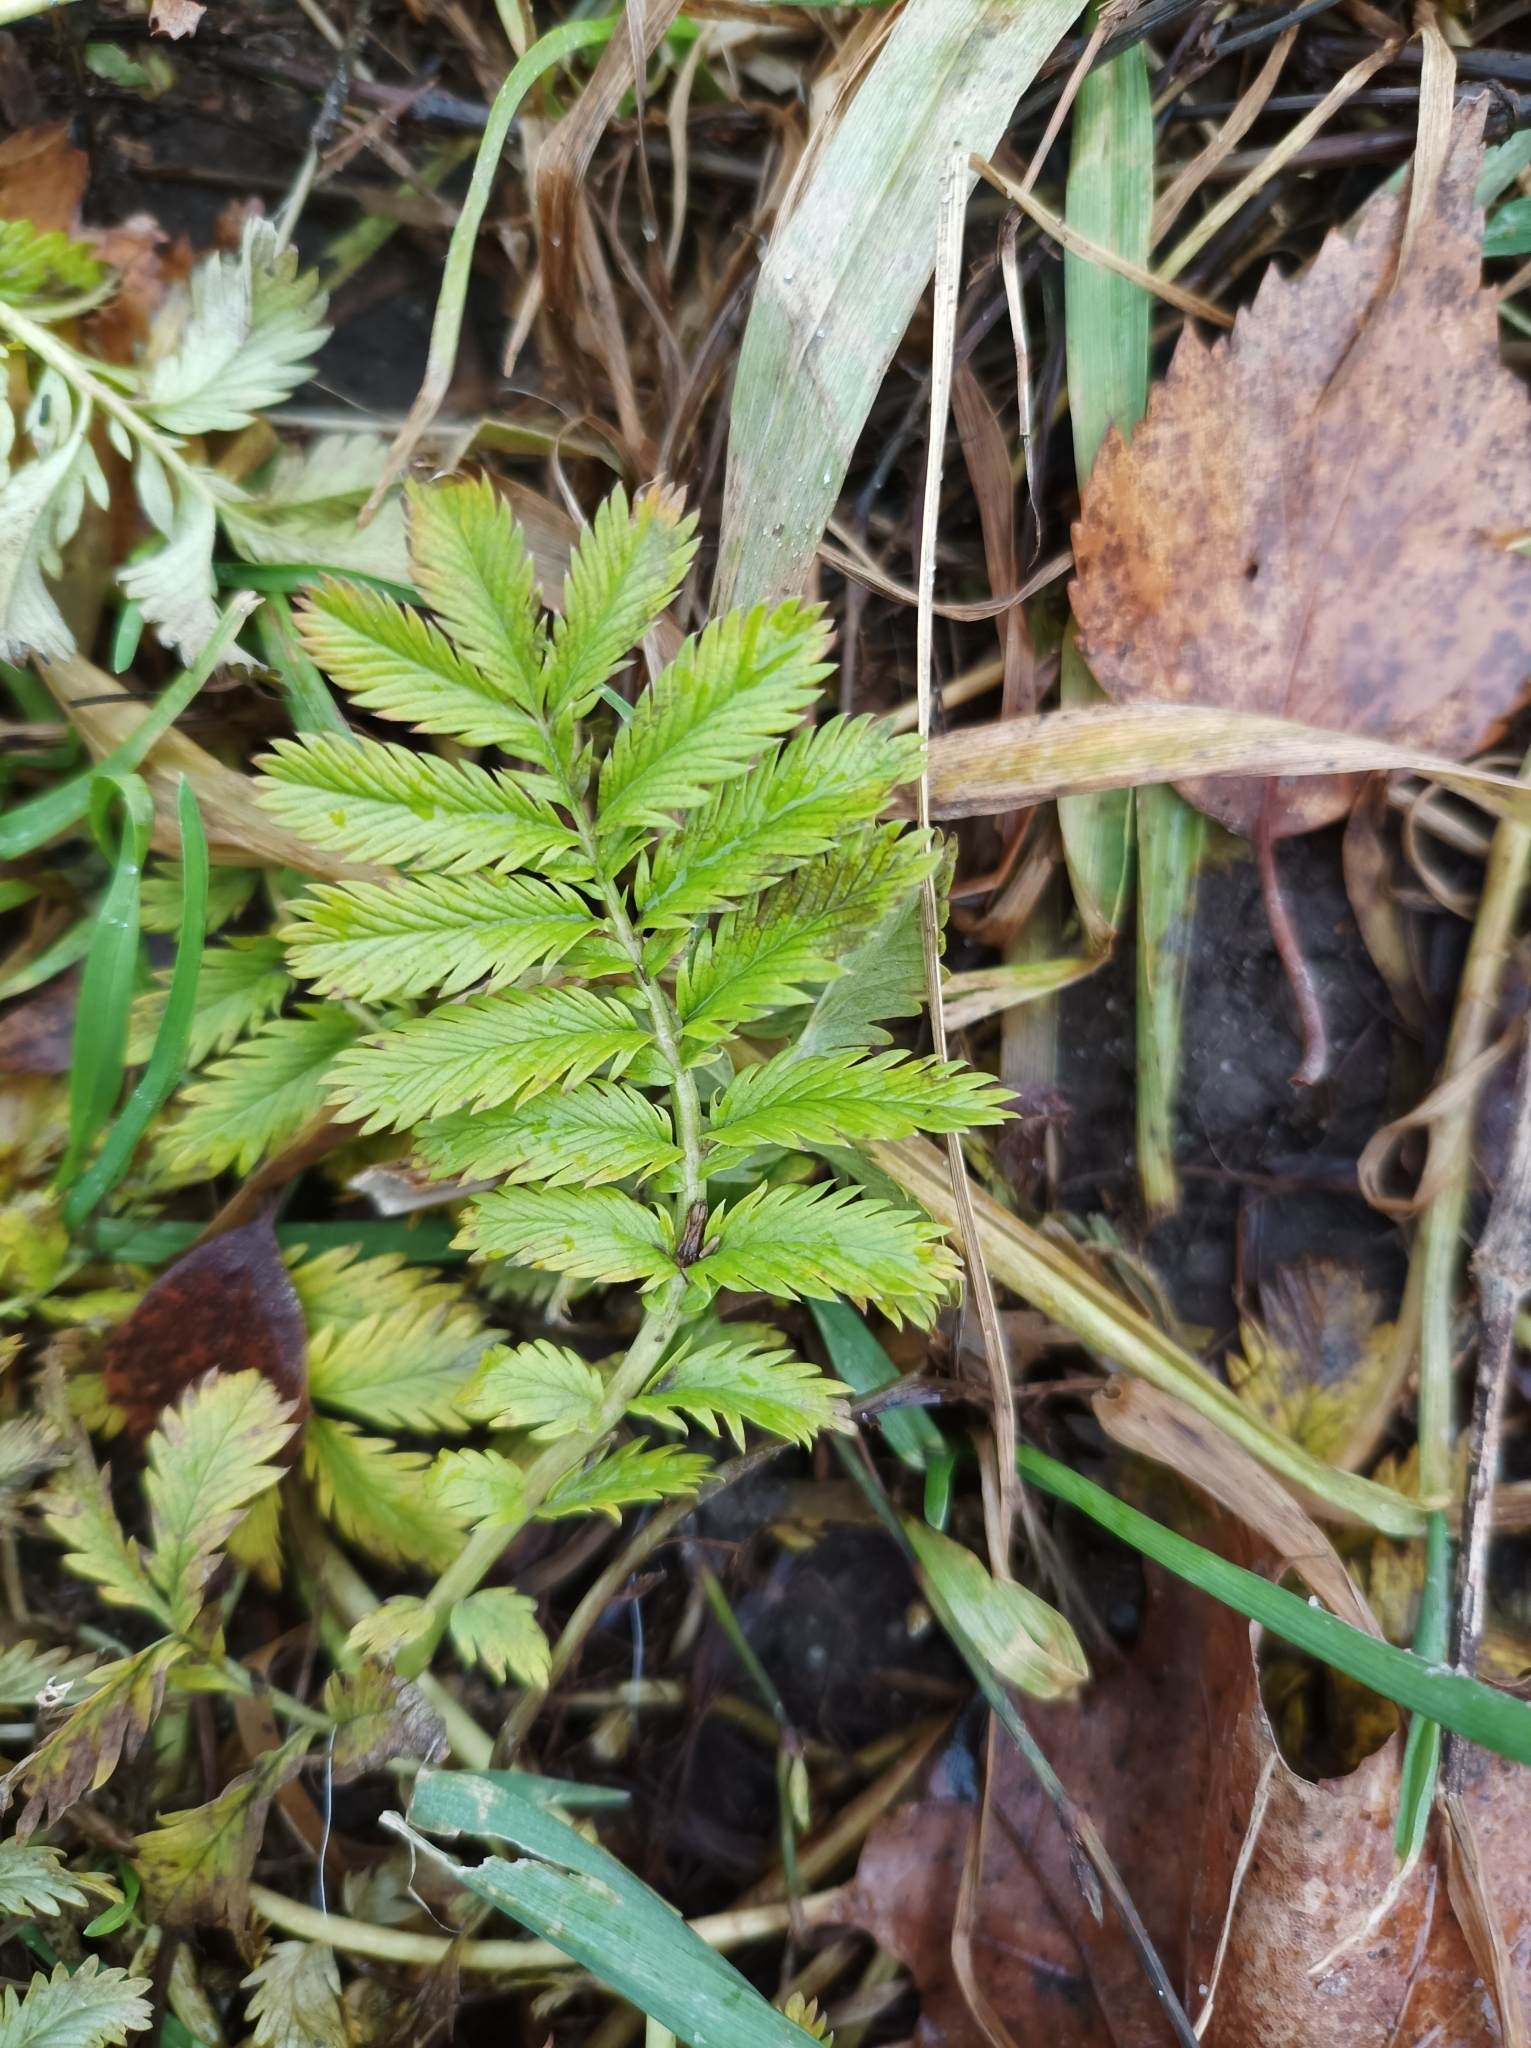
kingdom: Plantae
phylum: Tracheophyta
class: Magnoliopsida
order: Rosales
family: Rosaceae
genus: Argentina
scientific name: Argentina anserina
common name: Common silverweed
